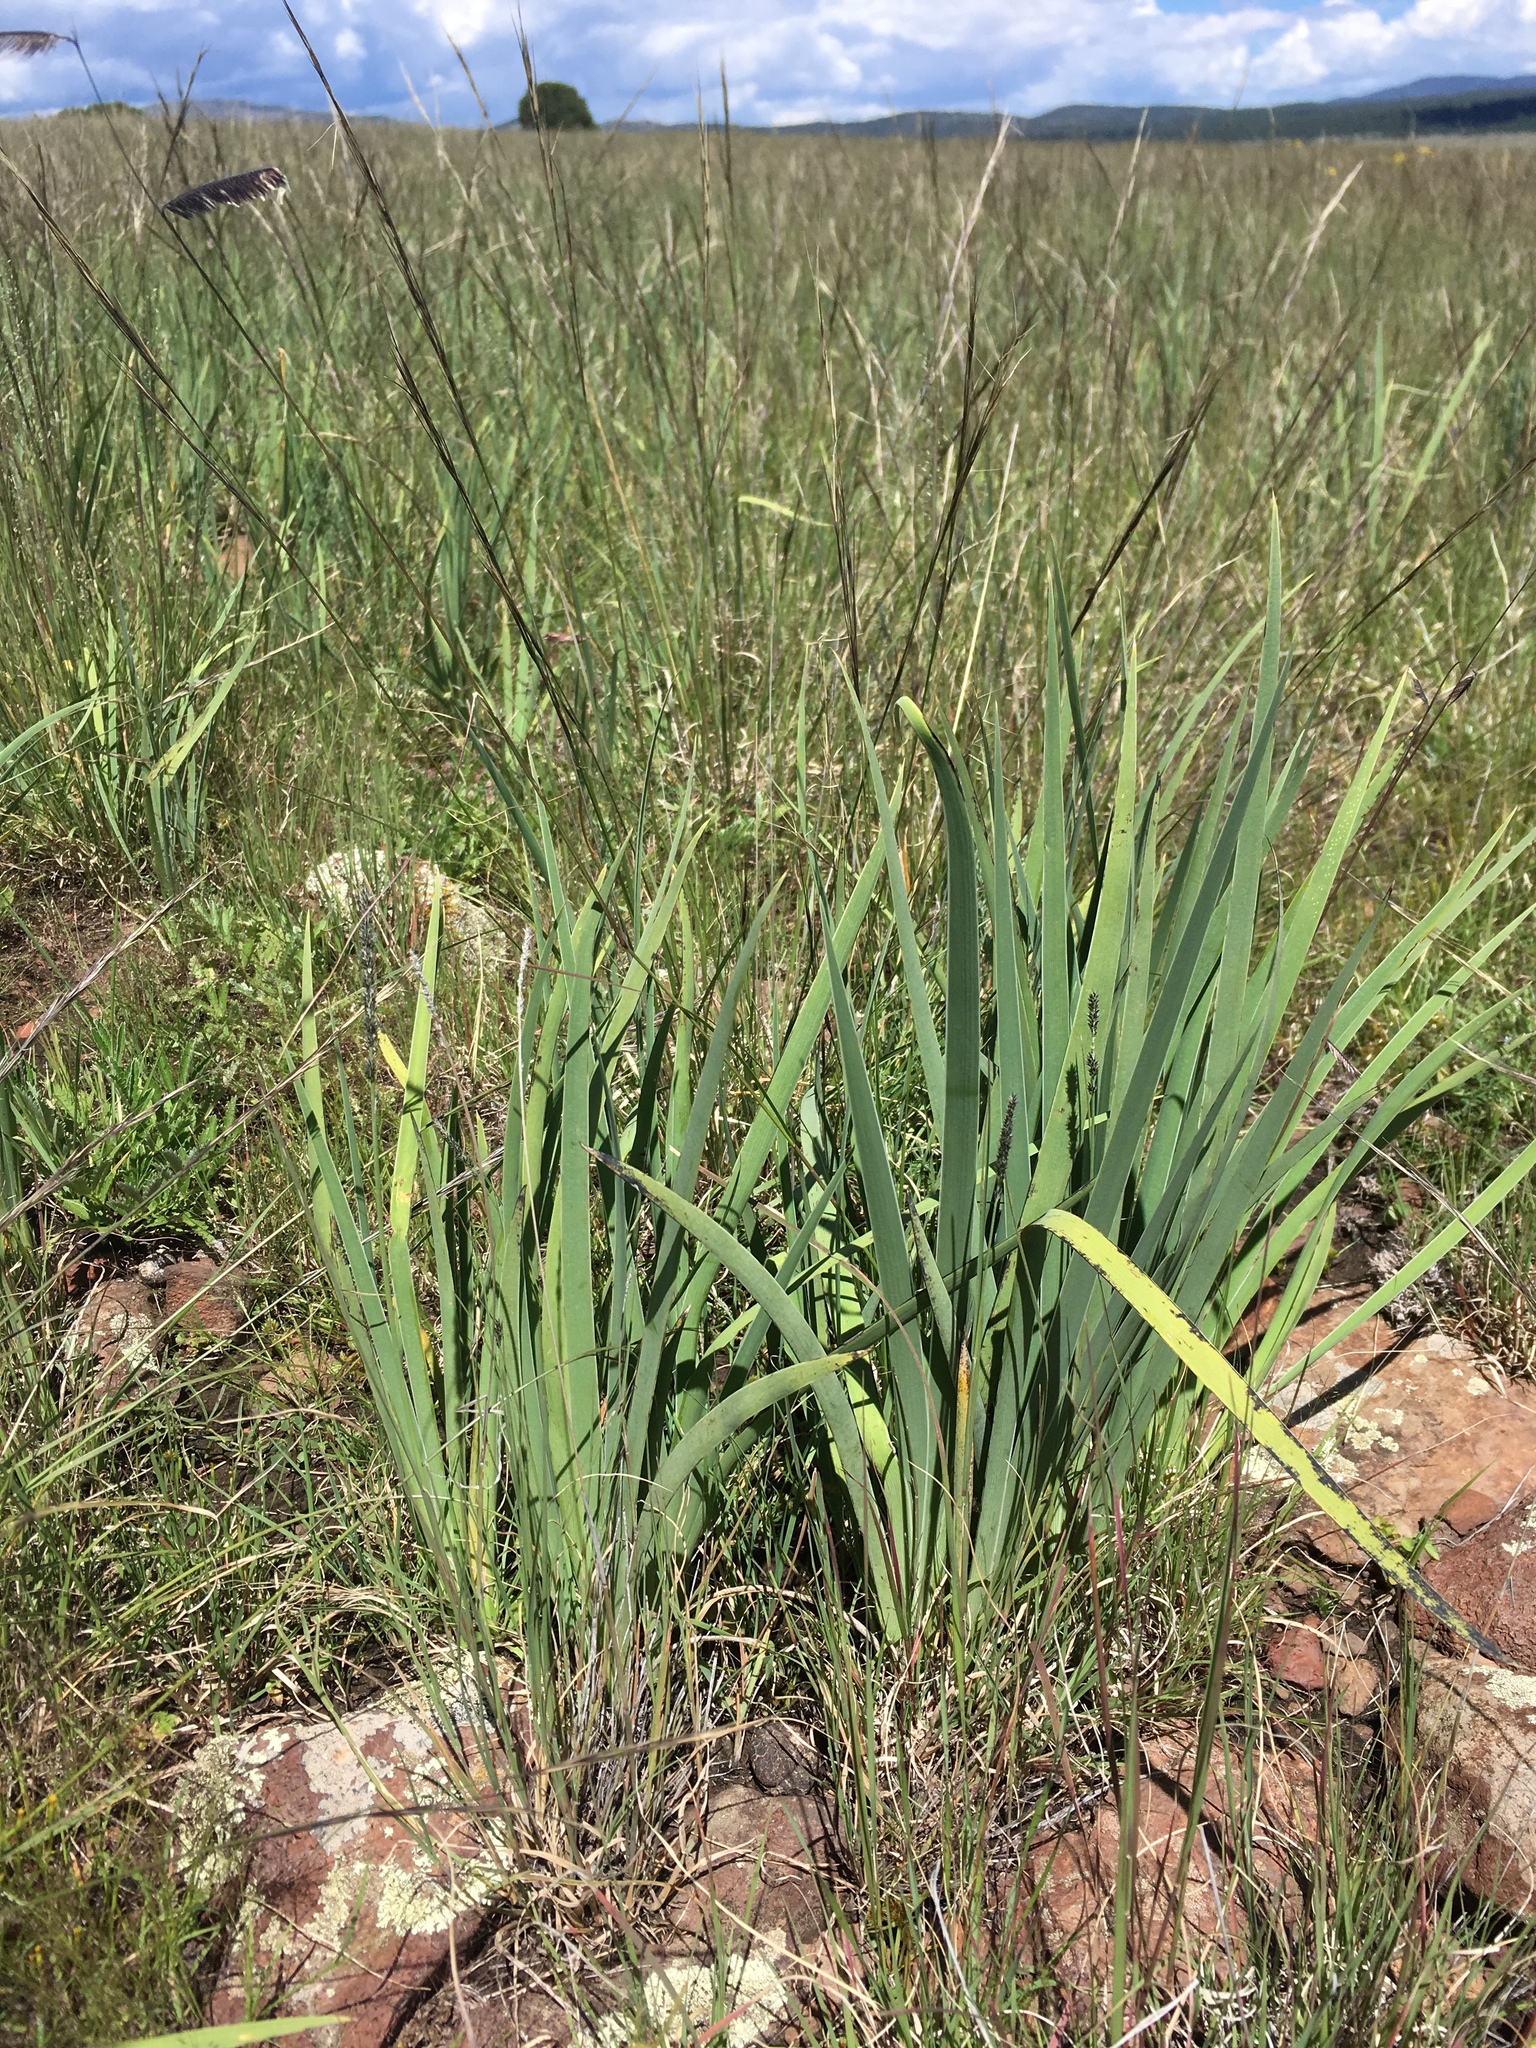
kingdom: Plantae
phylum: Tracheophyta
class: Liliopsida
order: Asparagales
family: Iridaceae
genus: Iris
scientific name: Iris missouriensis
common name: Rocky mountain iris
